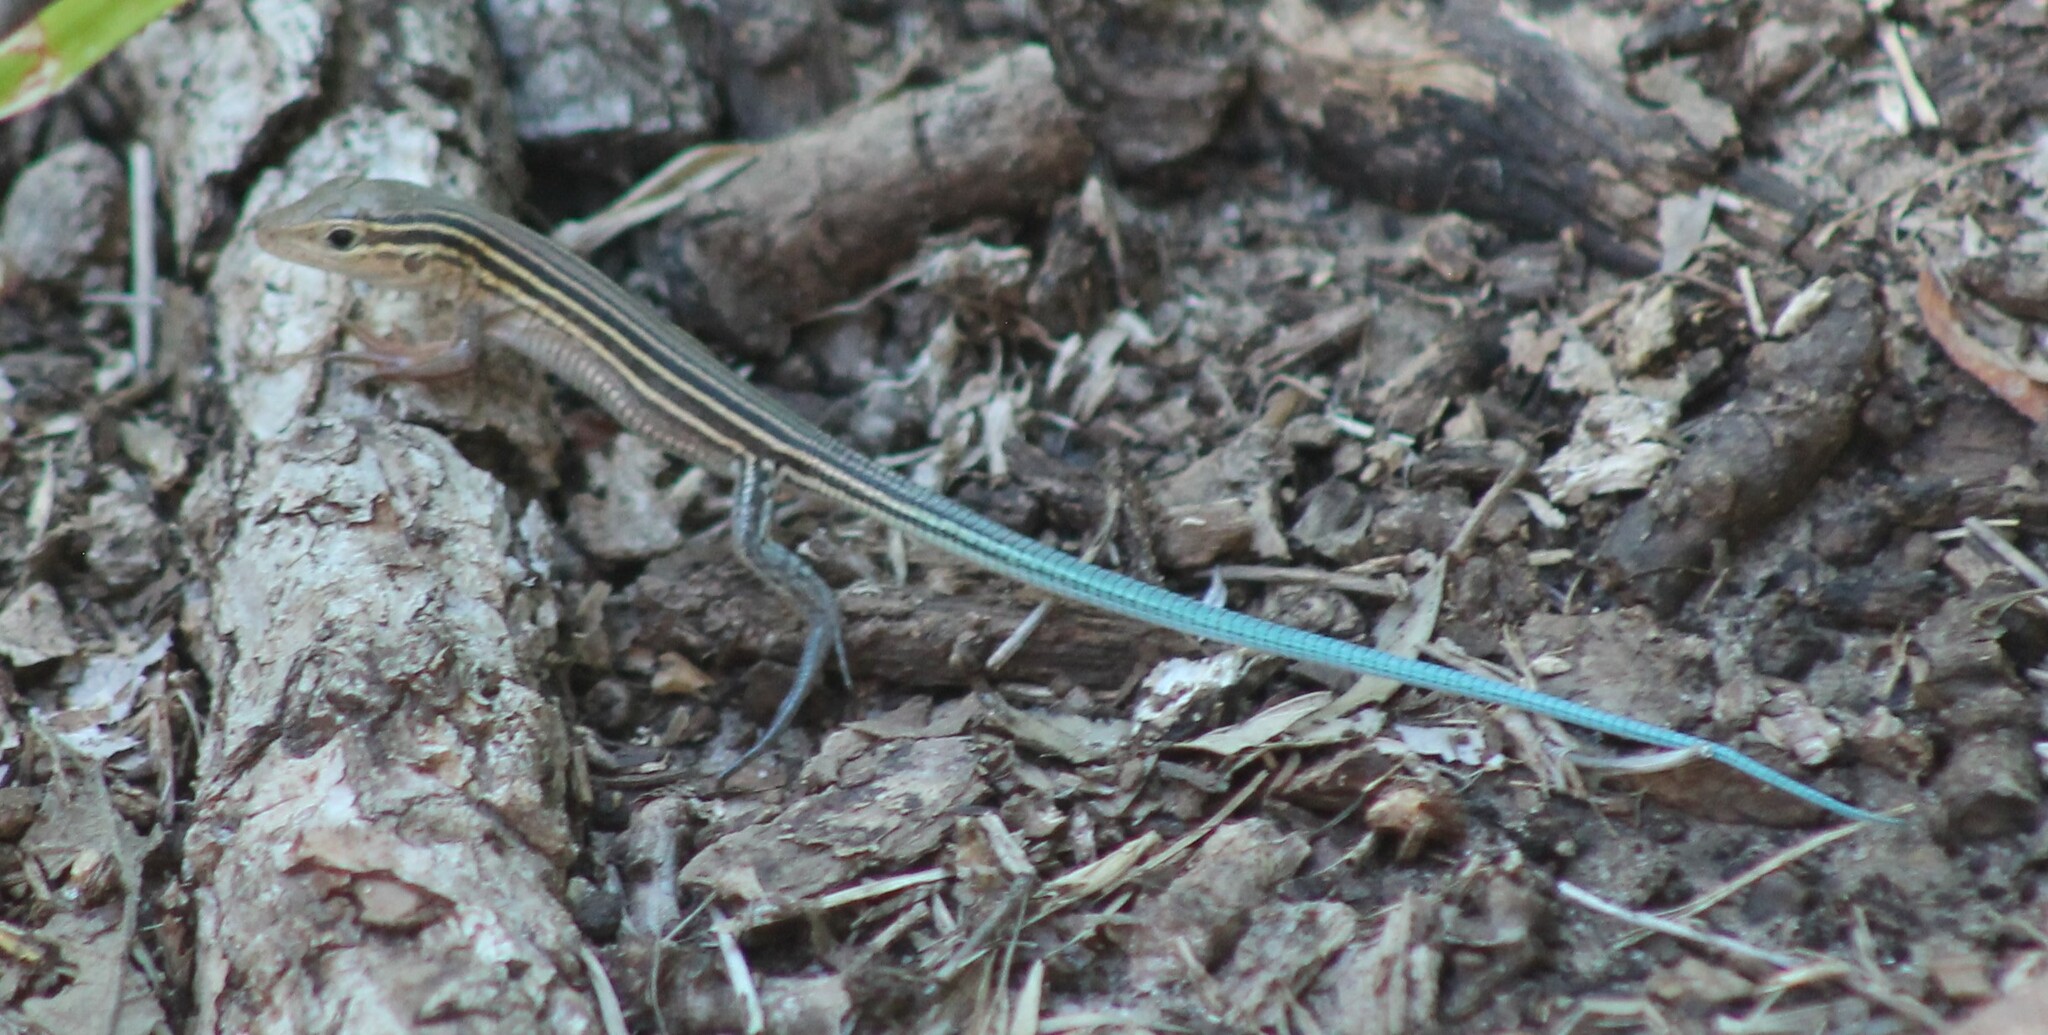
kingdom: Animalia
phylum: Chordata
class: Squamata
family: Teiidae
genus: Aspidoscelis
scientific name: Aspidoscelis sexlineatus
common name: Six-lined racerunner
